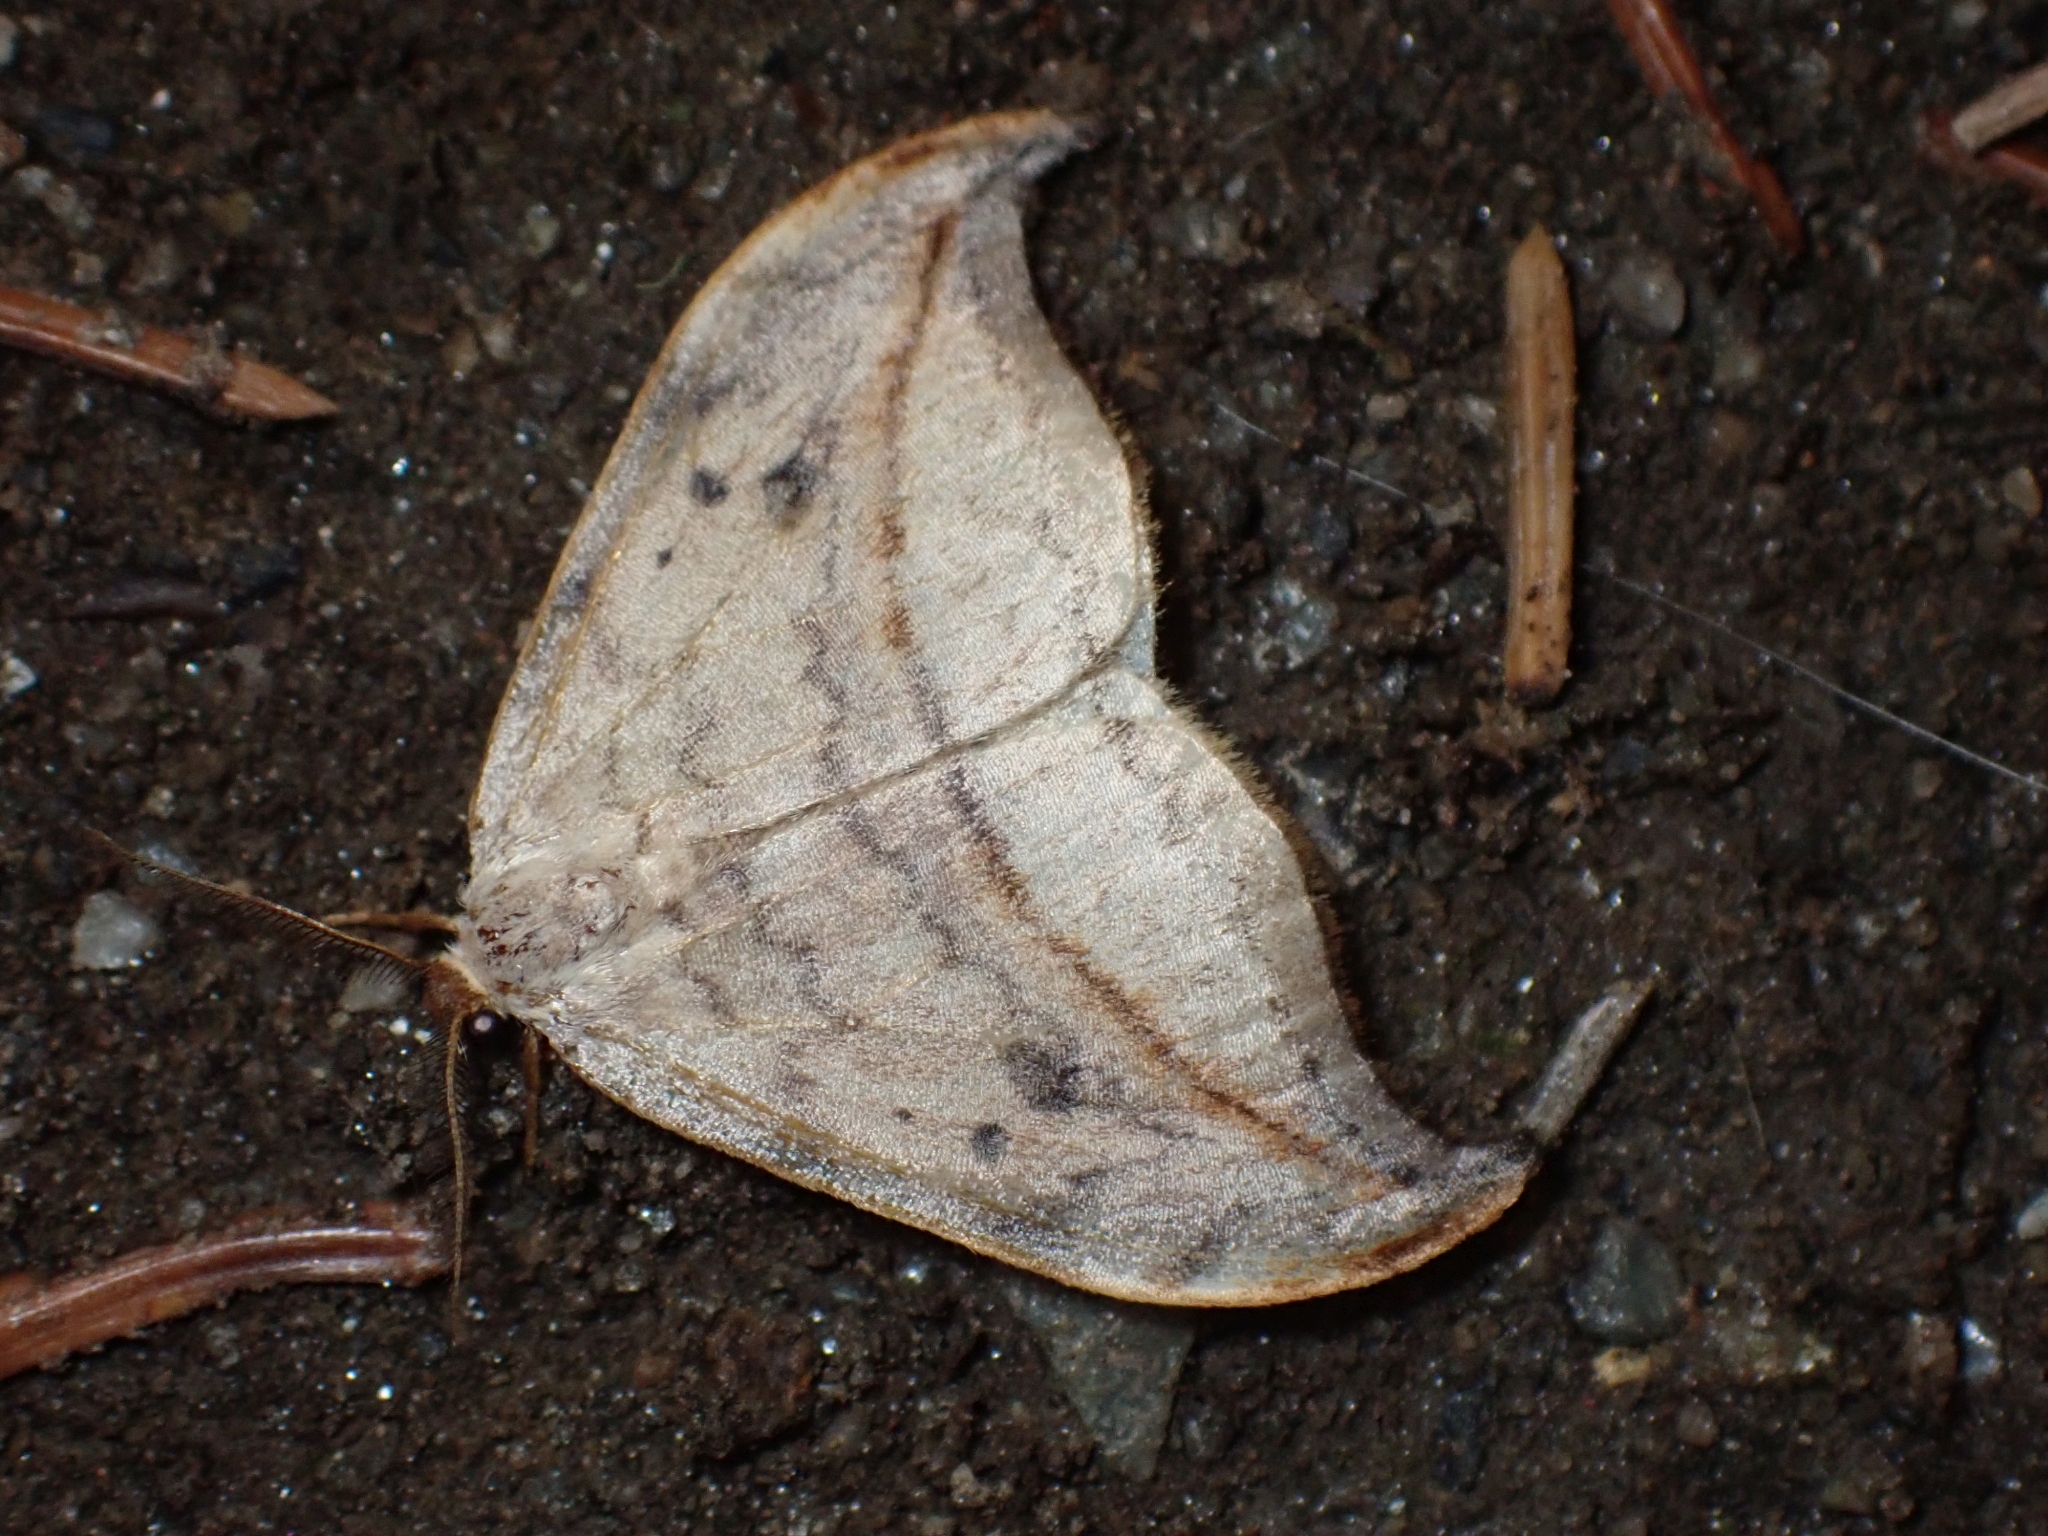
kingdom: Animalia
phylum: Arthropoda
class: Insecta
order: Lepidoptera
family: Drepanidae
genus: Drepana
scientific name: Drepana arcuata
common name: Arched hooktip moth
